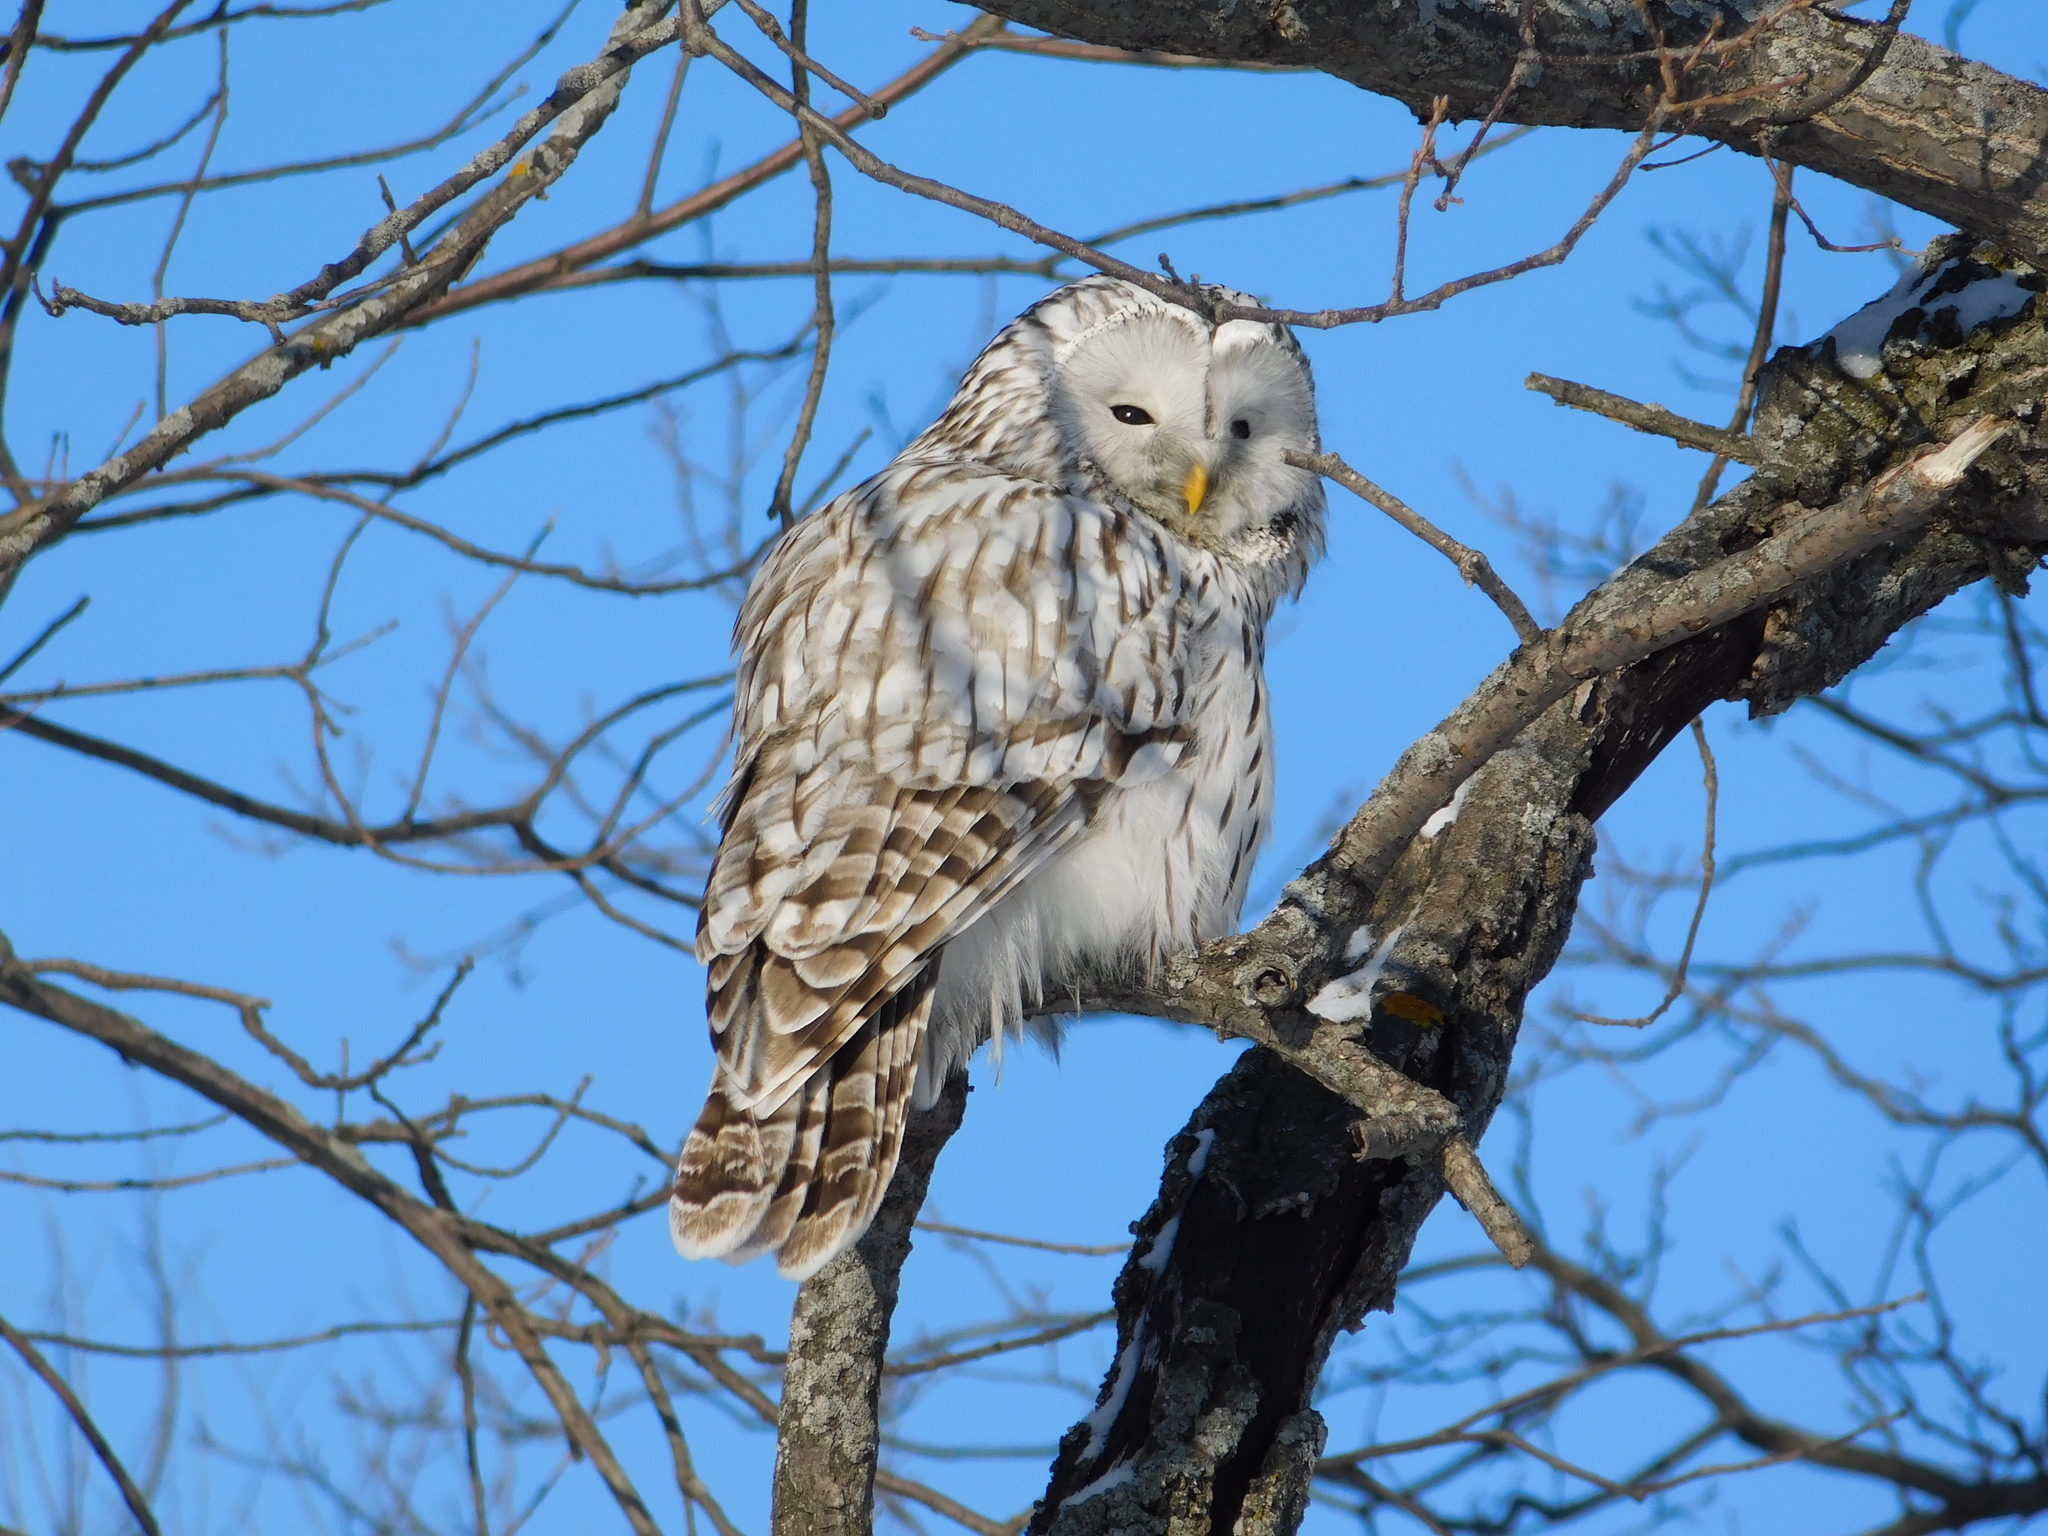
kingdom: Animalia
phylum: Chordata
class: Aves
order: Strigiformes
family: Strigidae
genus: Strix
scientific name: Strix uralensis
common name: Ural owl
